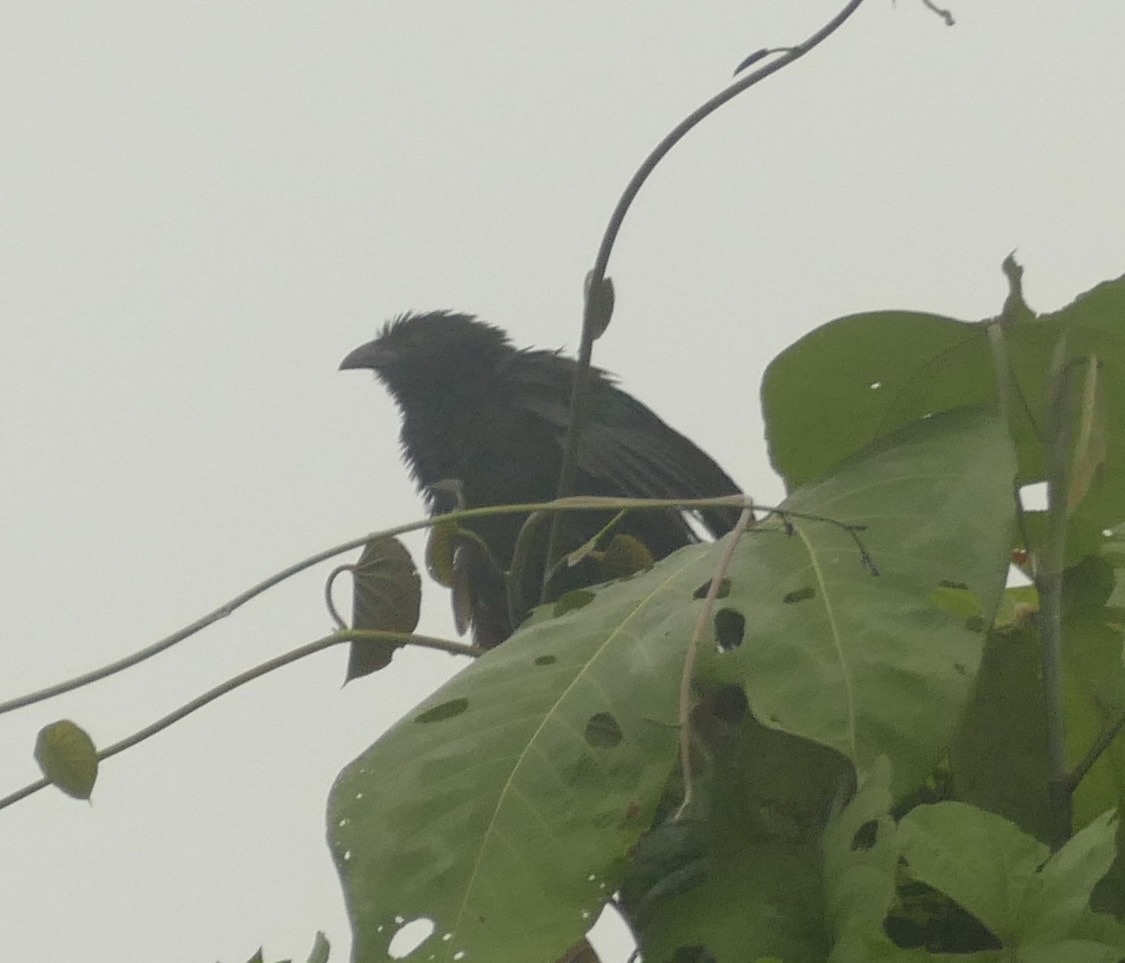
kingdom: Animalia
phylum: Chordata
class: Aves
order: Cuculiformes
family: Cuculidae
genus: Centropus
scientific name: Centropus bernsteini
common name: Black-billed coucal
